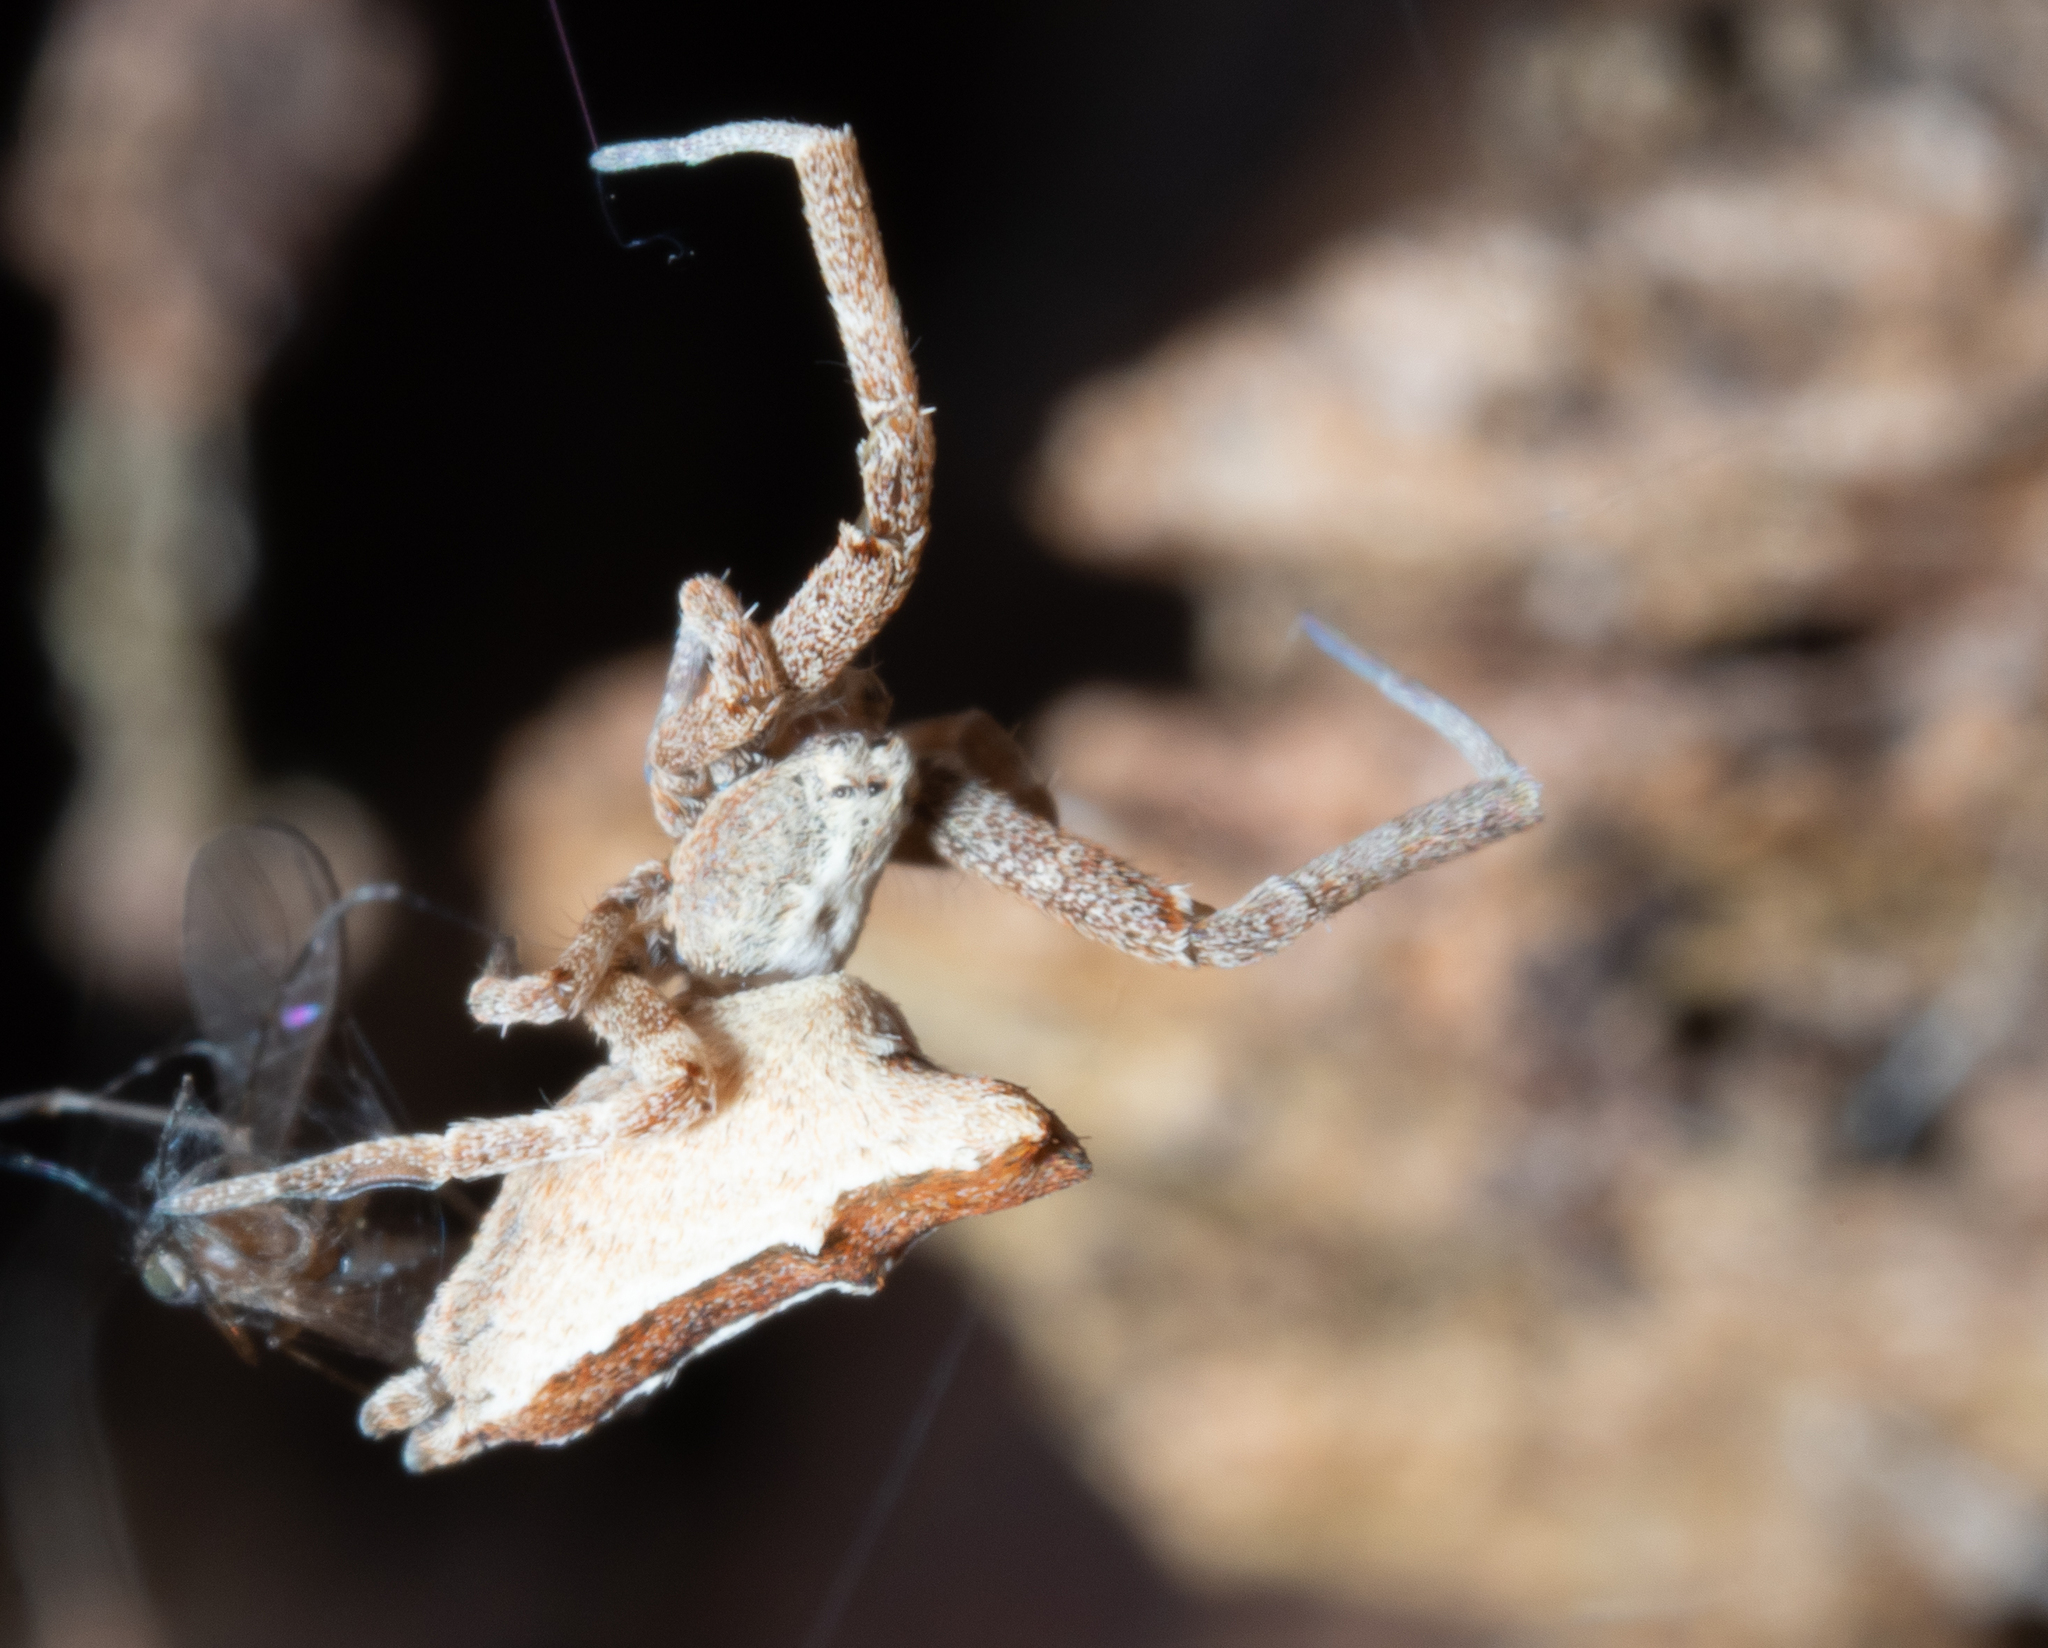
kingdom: Animalia
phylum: Arthropoda
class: Arachnida
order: Araneae
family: Uloboridae
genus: Philoponella
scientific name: Philoponella congregabilis
